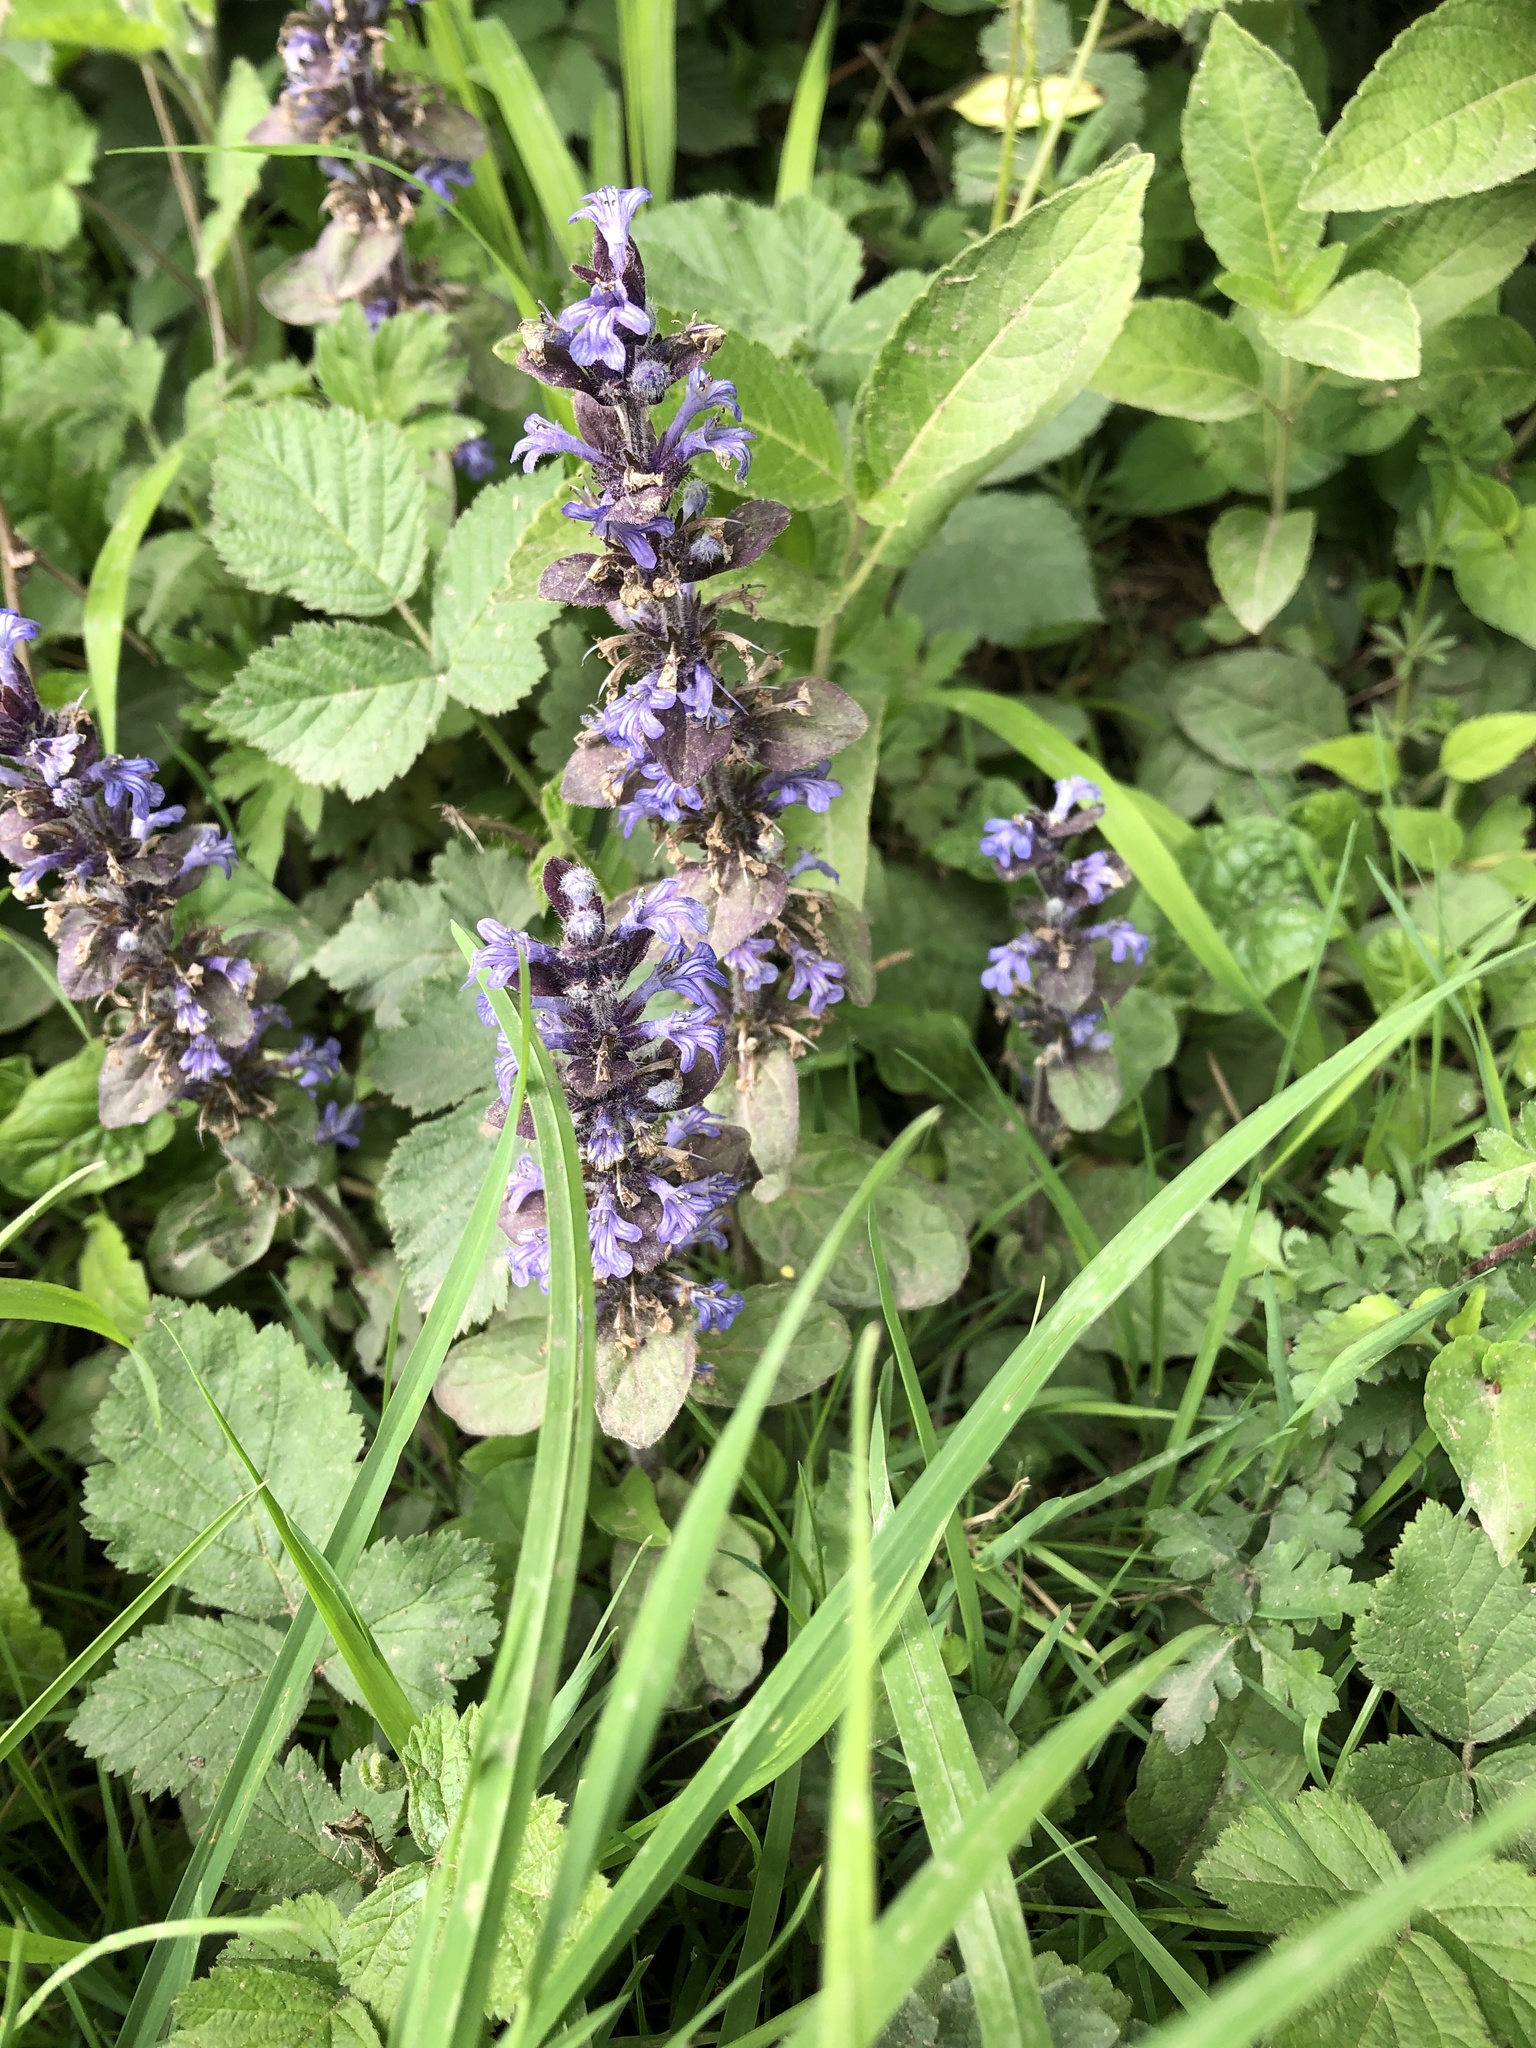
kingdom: Plantae
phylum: Tracheophyta
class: Magnoliopsida
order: Lamiales
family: Lamiaceae
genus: Ajuga
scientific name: Ajuga reptans
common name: Bugle
